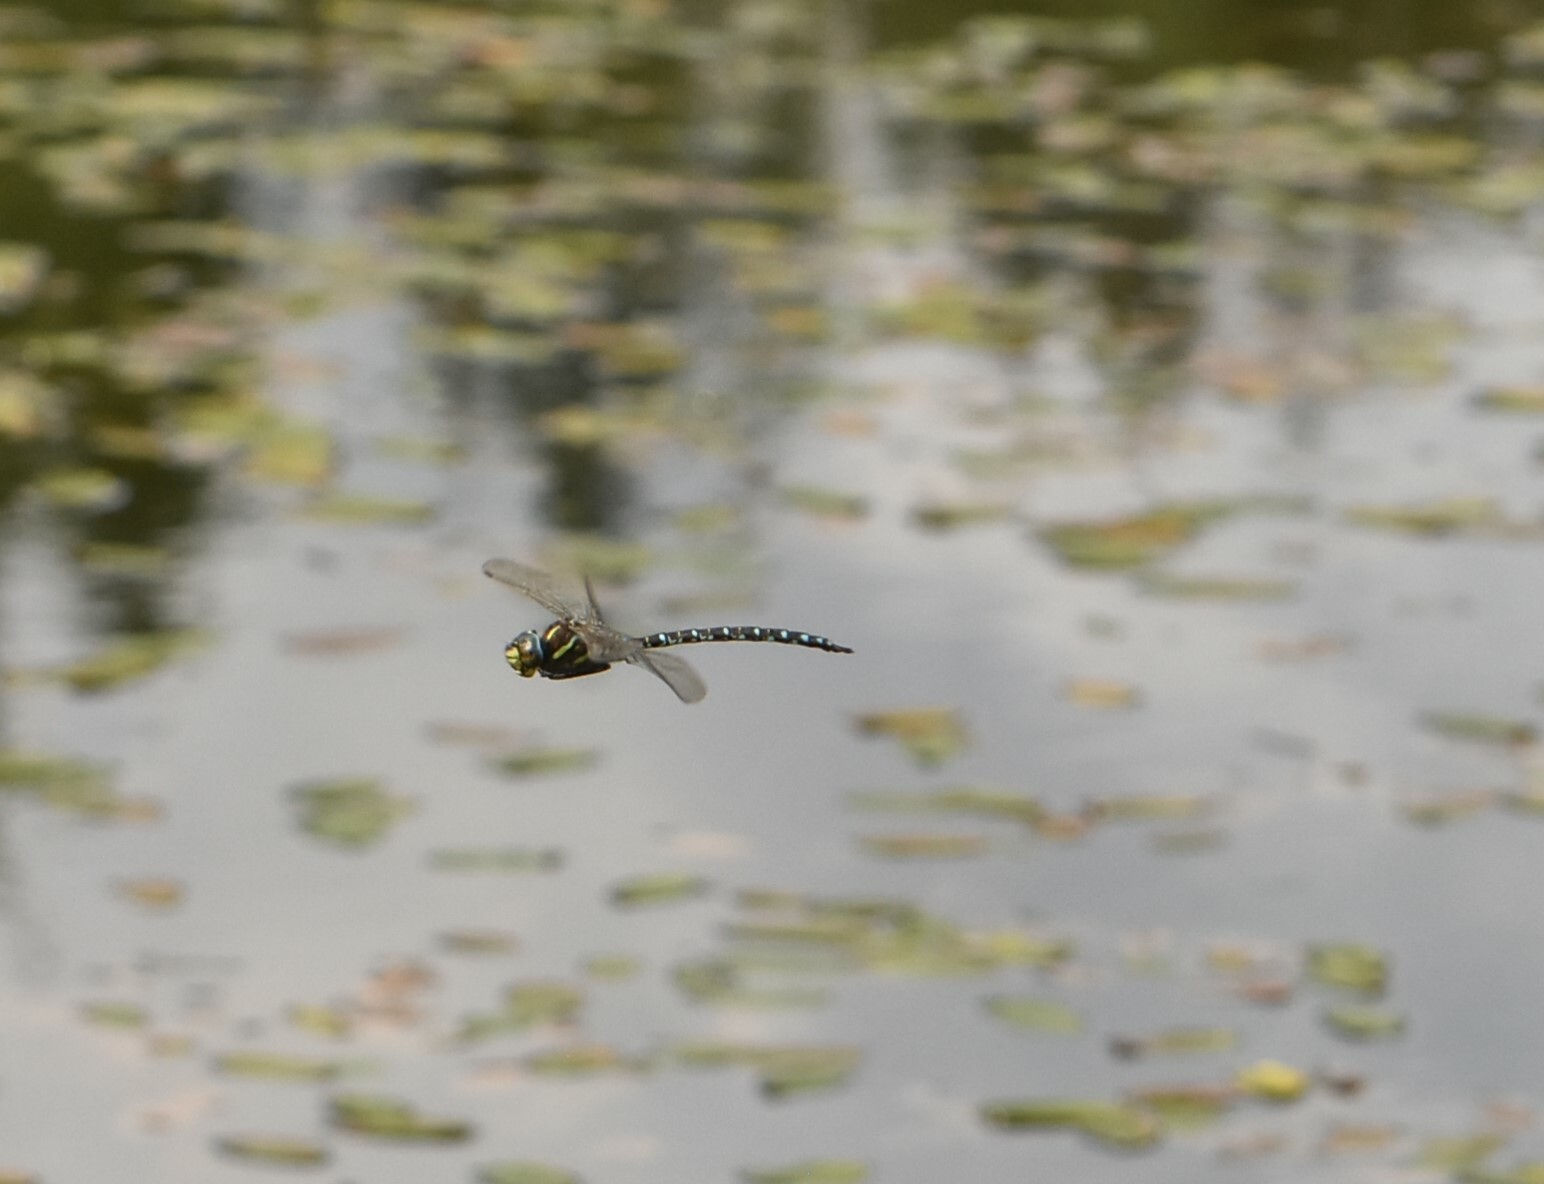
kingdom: Animalia
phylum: Arthropoda
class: Insecta
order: Odonata
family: Aeshnidae
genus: Aeshna
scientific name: Aeshna juncea
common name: Moorland hawker
